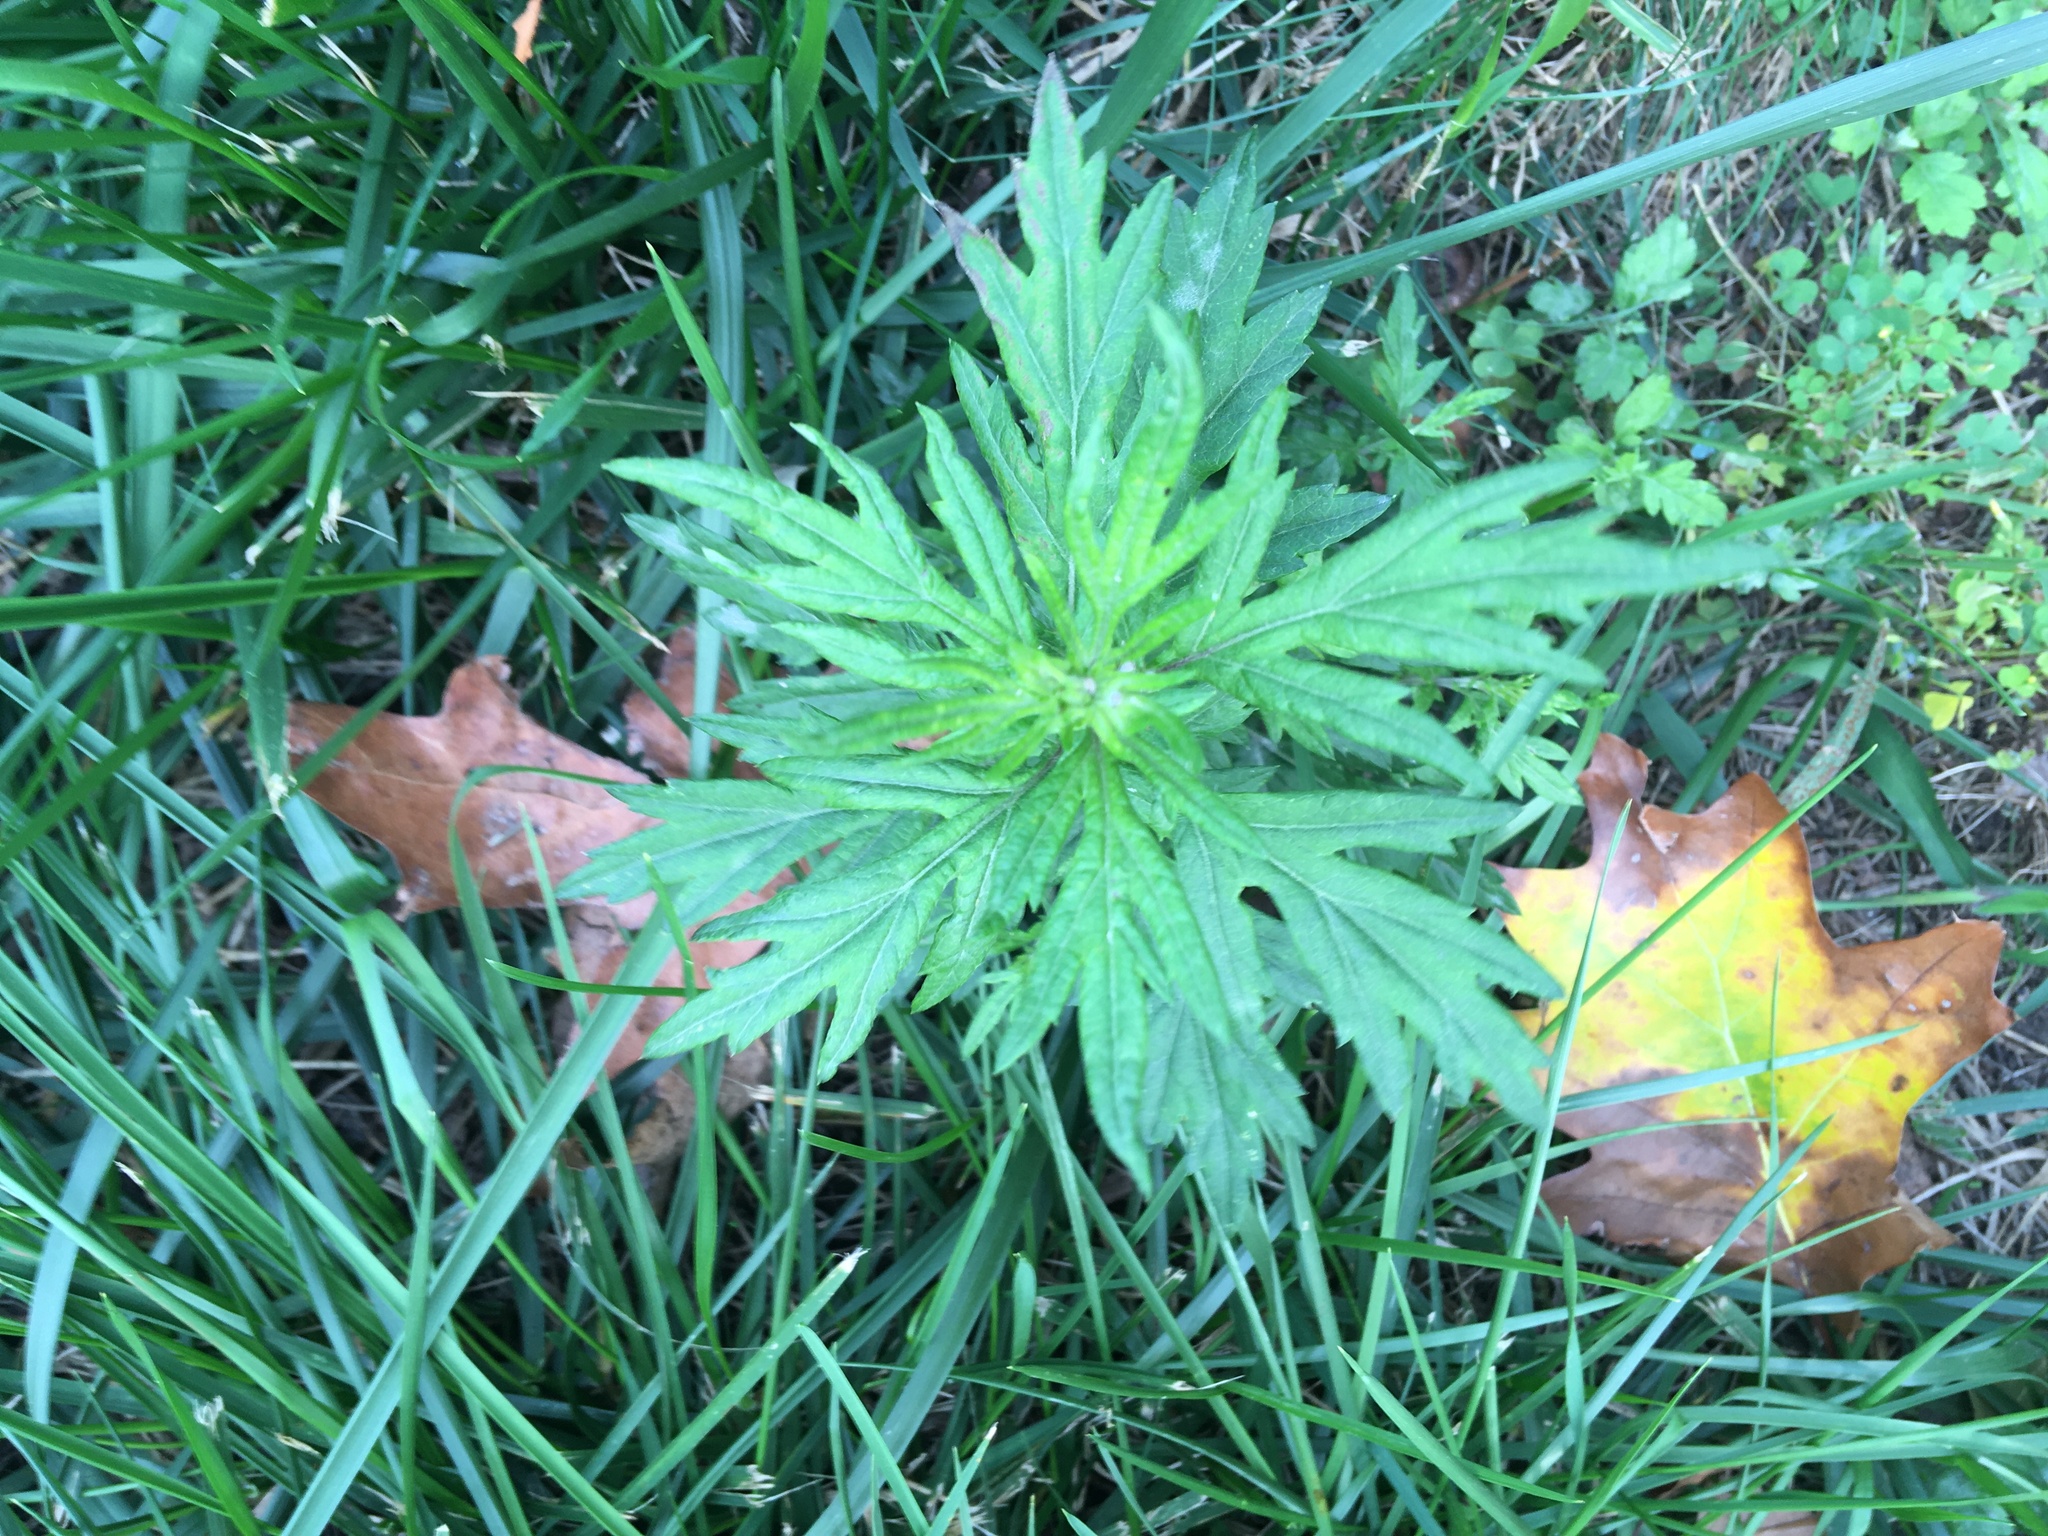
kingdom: Plantae
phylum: Tracheophyta
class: Magnoliopsida
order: Asterales
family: Asteraceae
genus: Artemisia
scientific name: Artemisia vulgaris
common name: Mugwort
